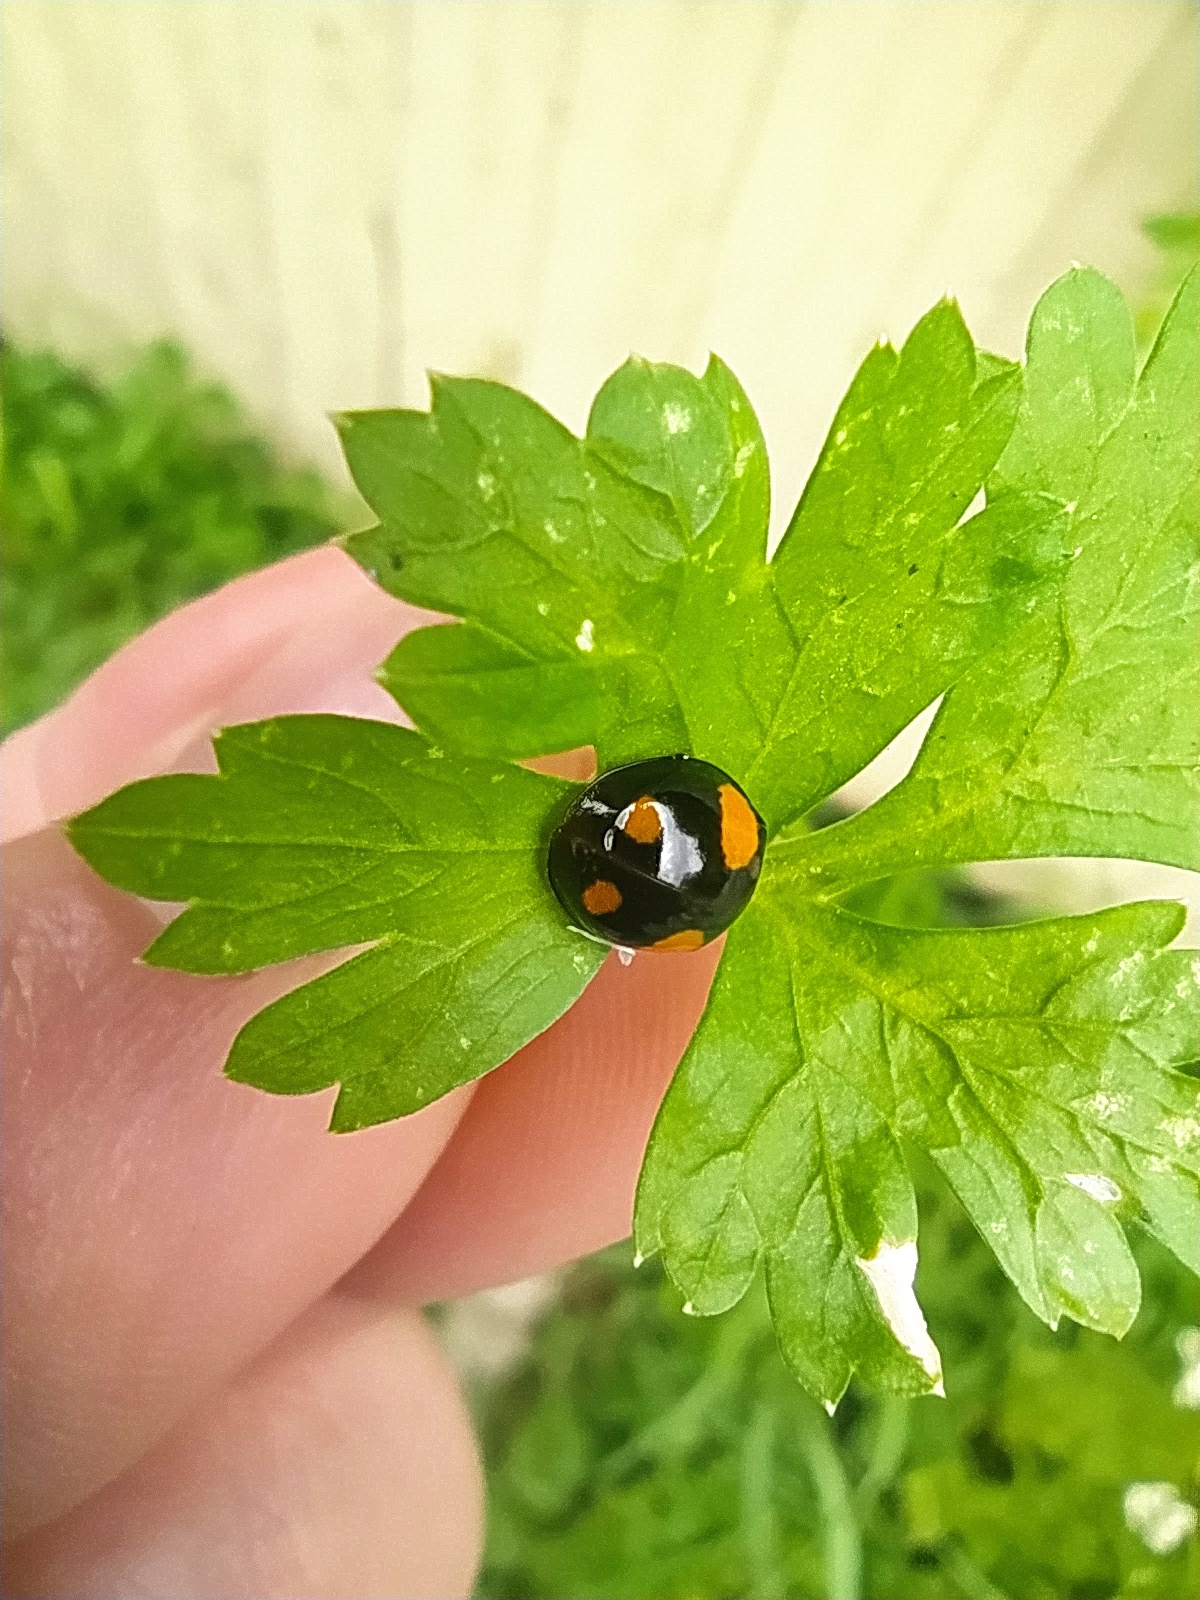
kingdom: Animalia
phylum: Arthropoda
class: Insecta
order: Coleoptera
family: Coccinellidae
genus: Harmonia
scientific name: Harmonia axyridis
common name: Harlequin ladybird
